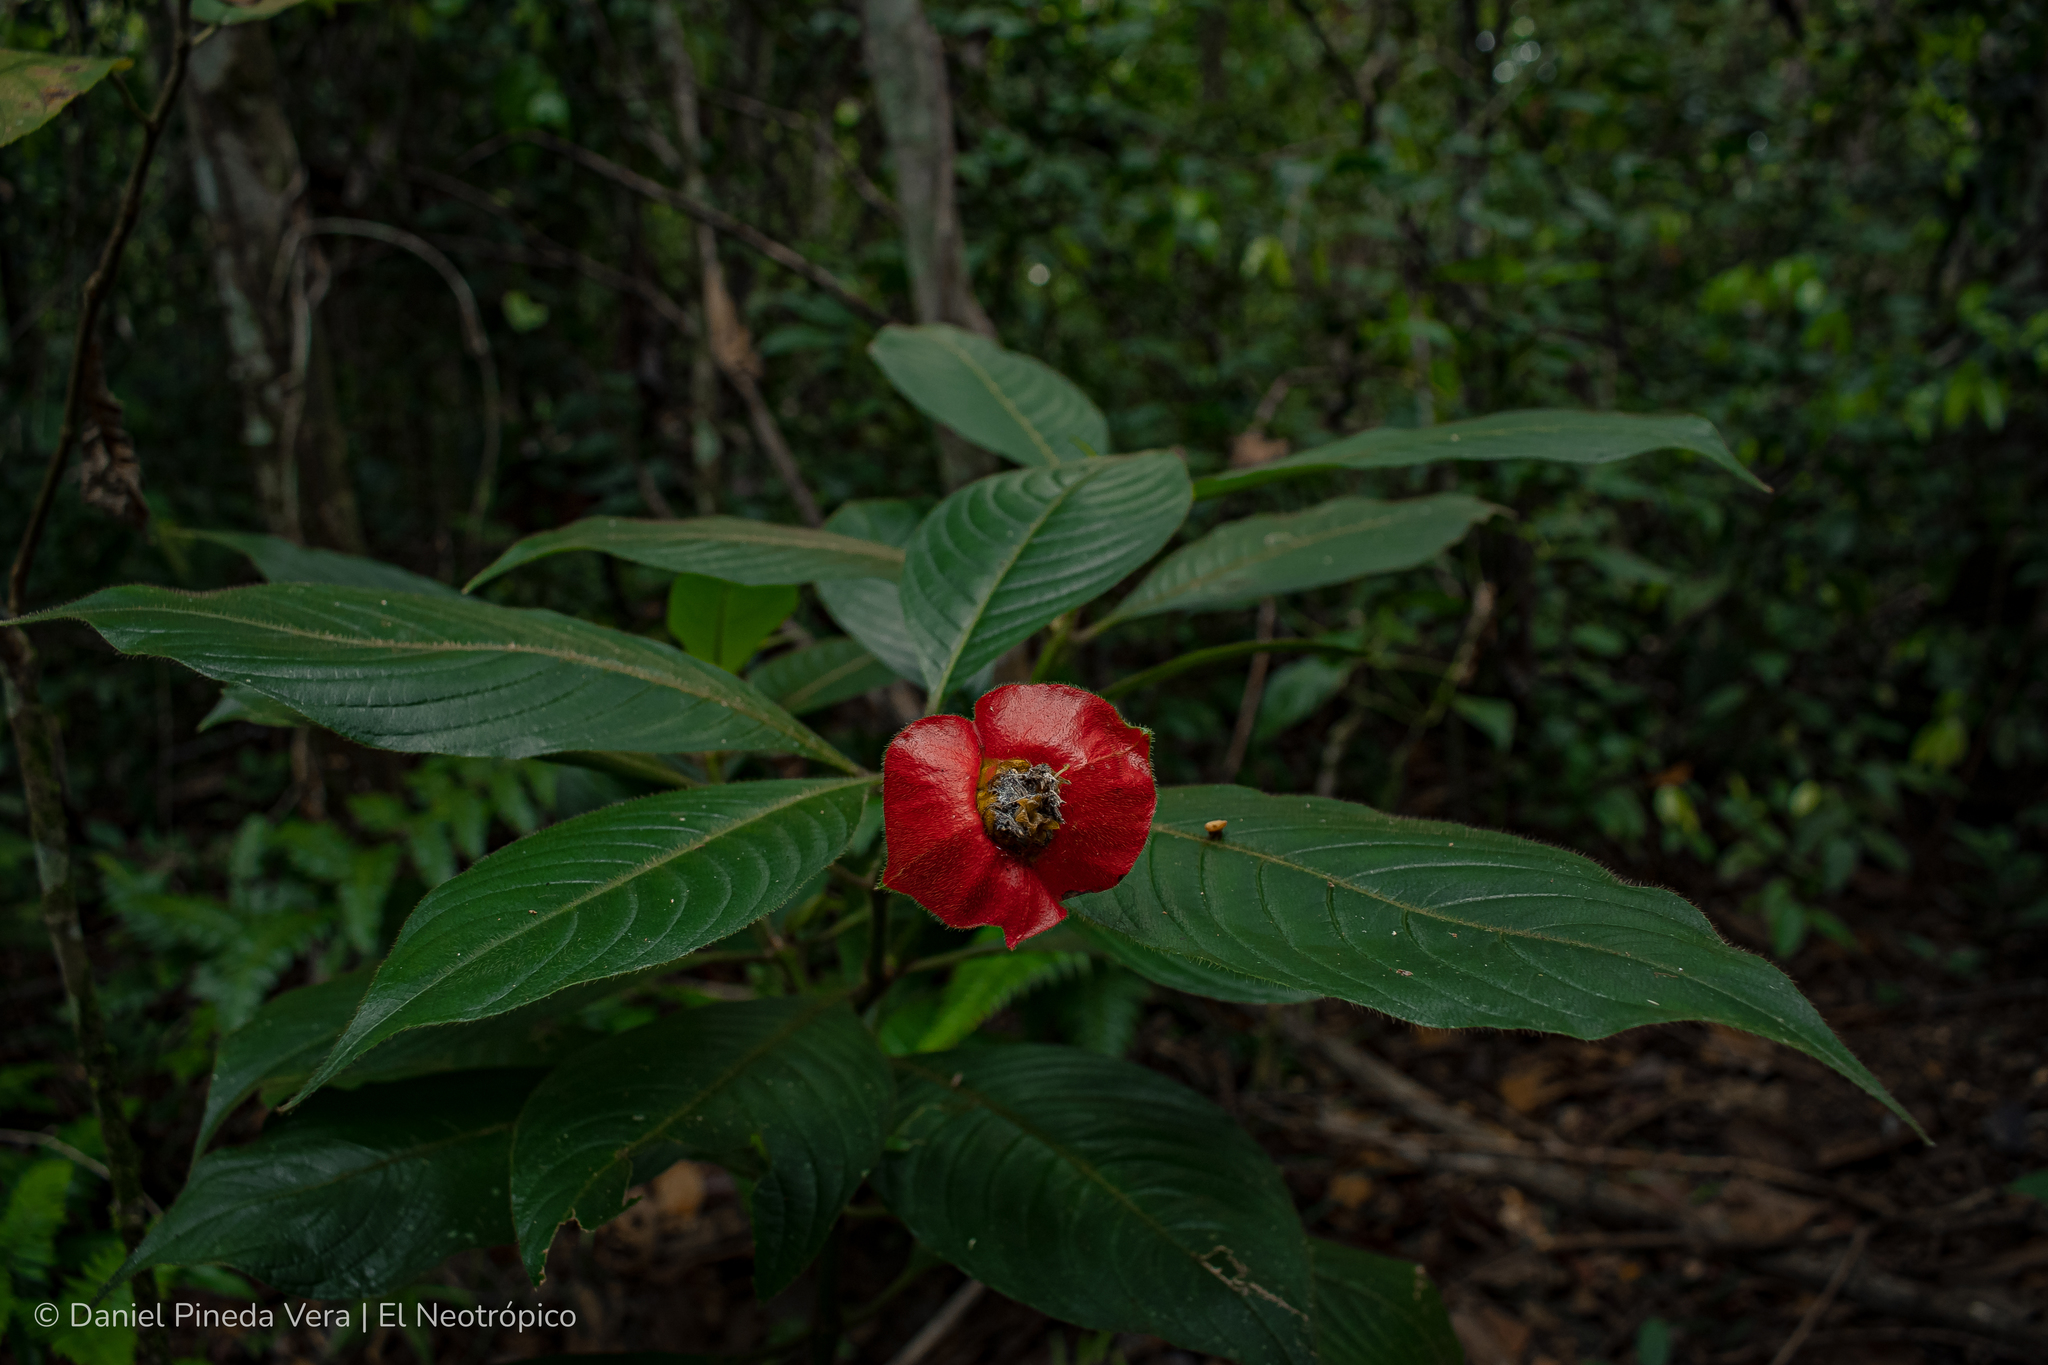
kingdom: Plantae
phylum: Tracheophyta
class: Magnoliopsida
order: Gentianales
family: Rubiaceae
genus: Palicourea
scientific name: Palicourea tomentosa
